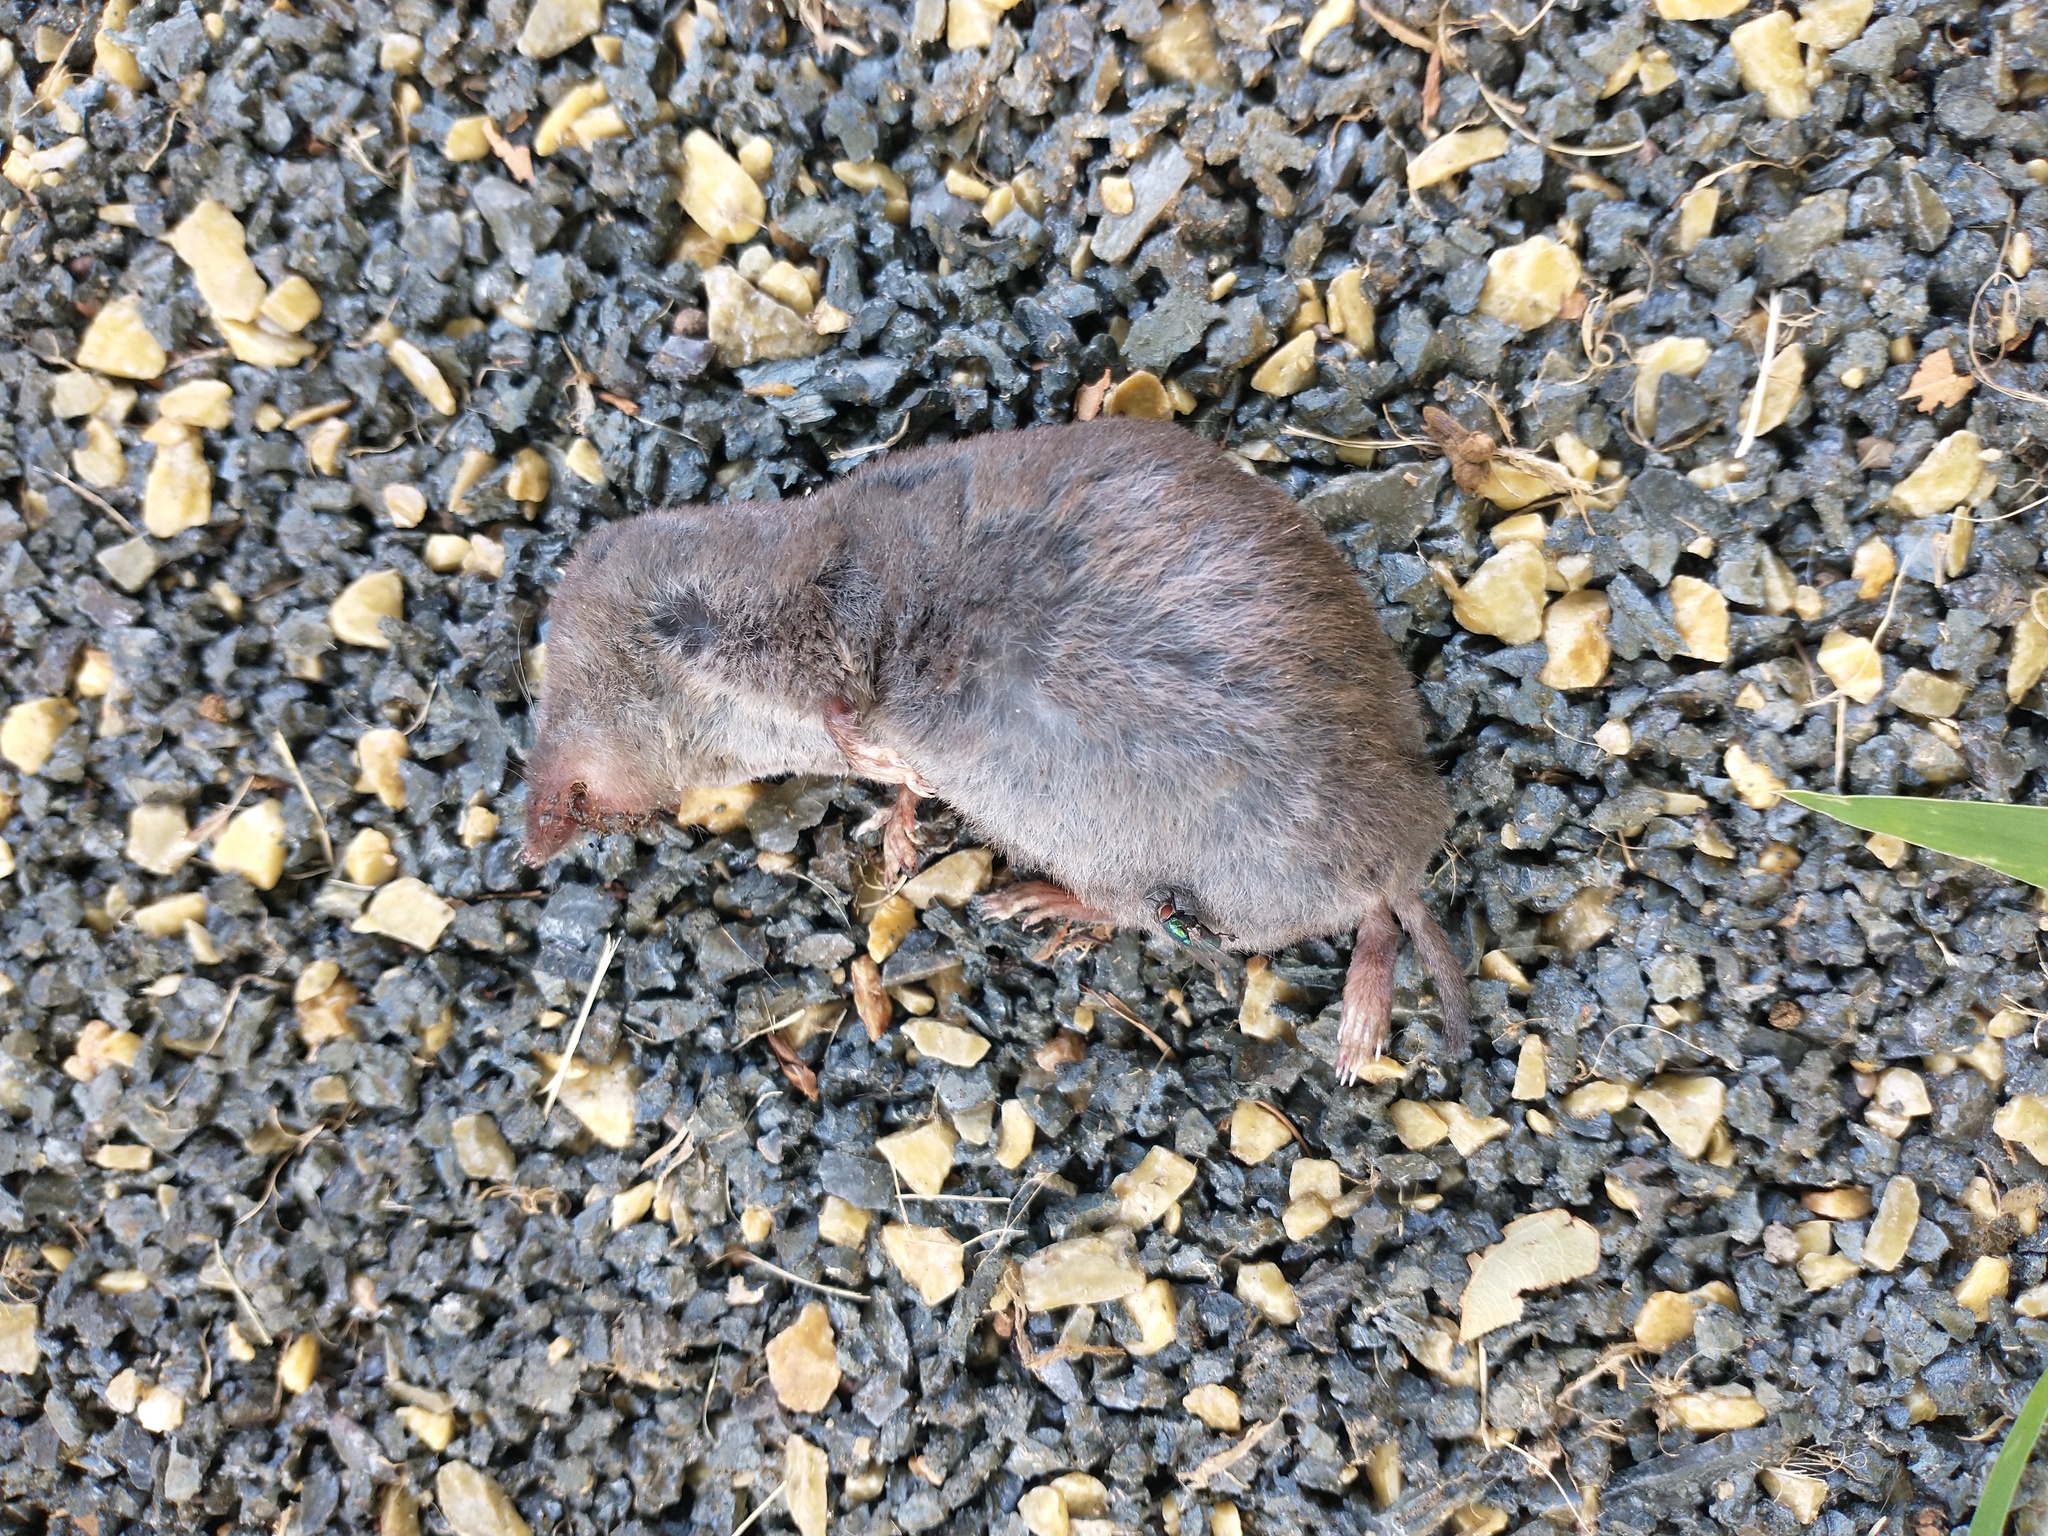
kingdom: Animalia
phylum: Chordata
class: Mammalia
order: Soricomorpha
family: Soricidae
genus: Blarina
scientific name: Blarina brevicauda
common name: Northern short-tailed shrew
